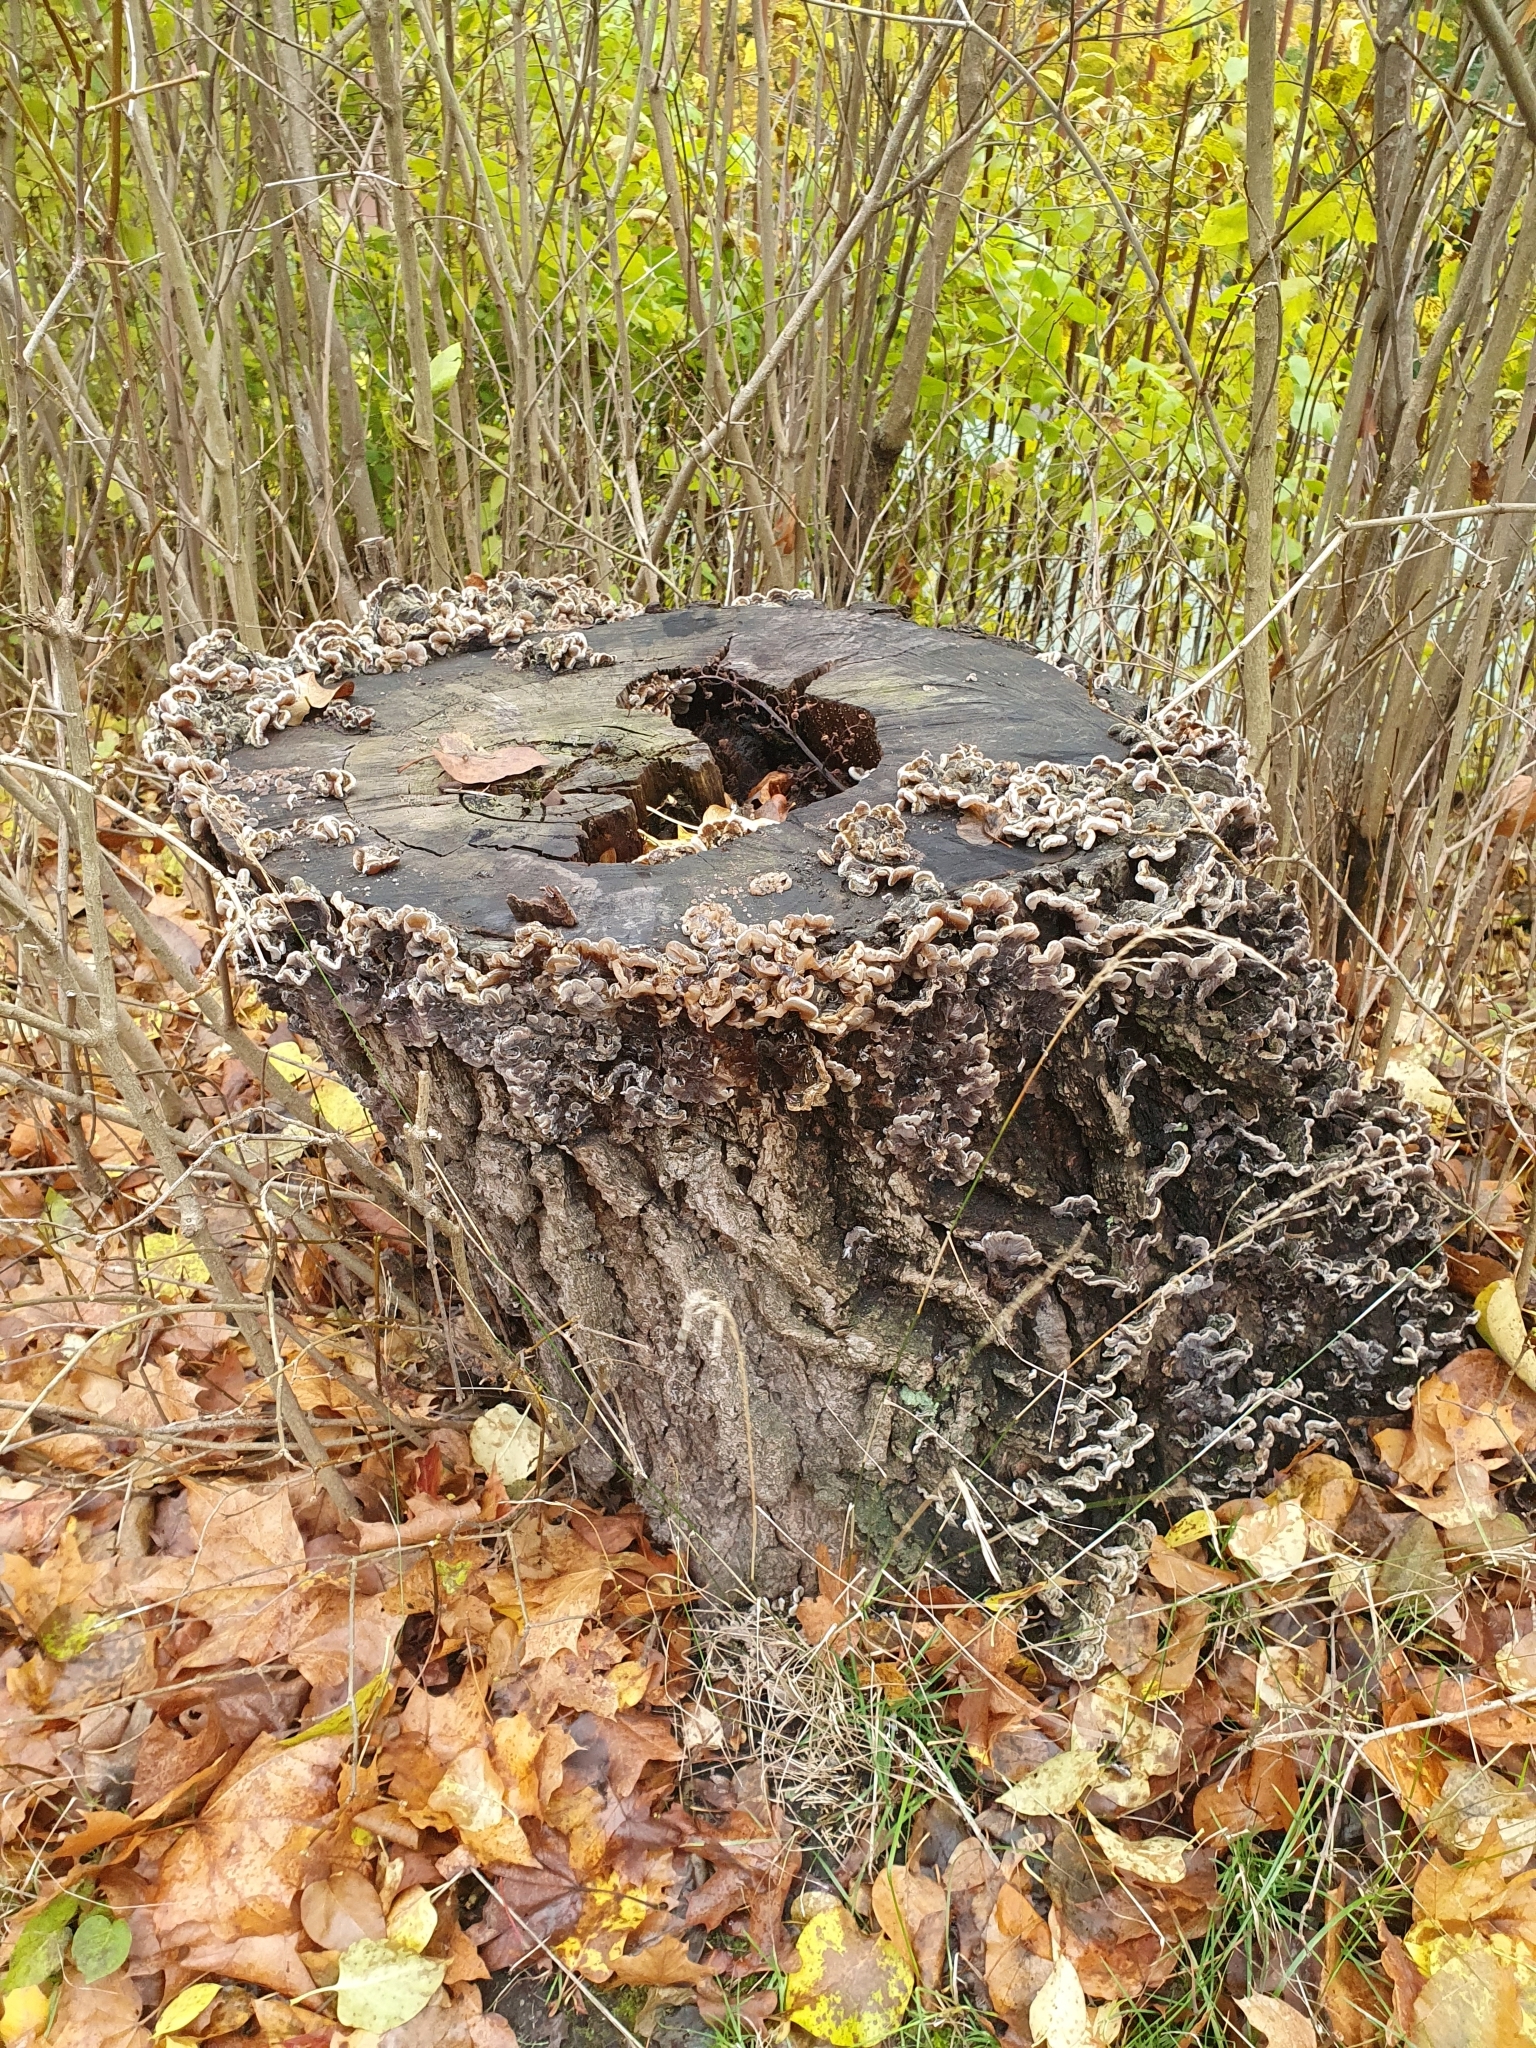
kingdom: Fungi
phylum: Basidiomycota
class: Agaricomycetes
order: Auriculariales
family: Auriculariaceae
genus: Auricularia
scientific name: Auricularia mesenterica
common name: Tripe fungus
